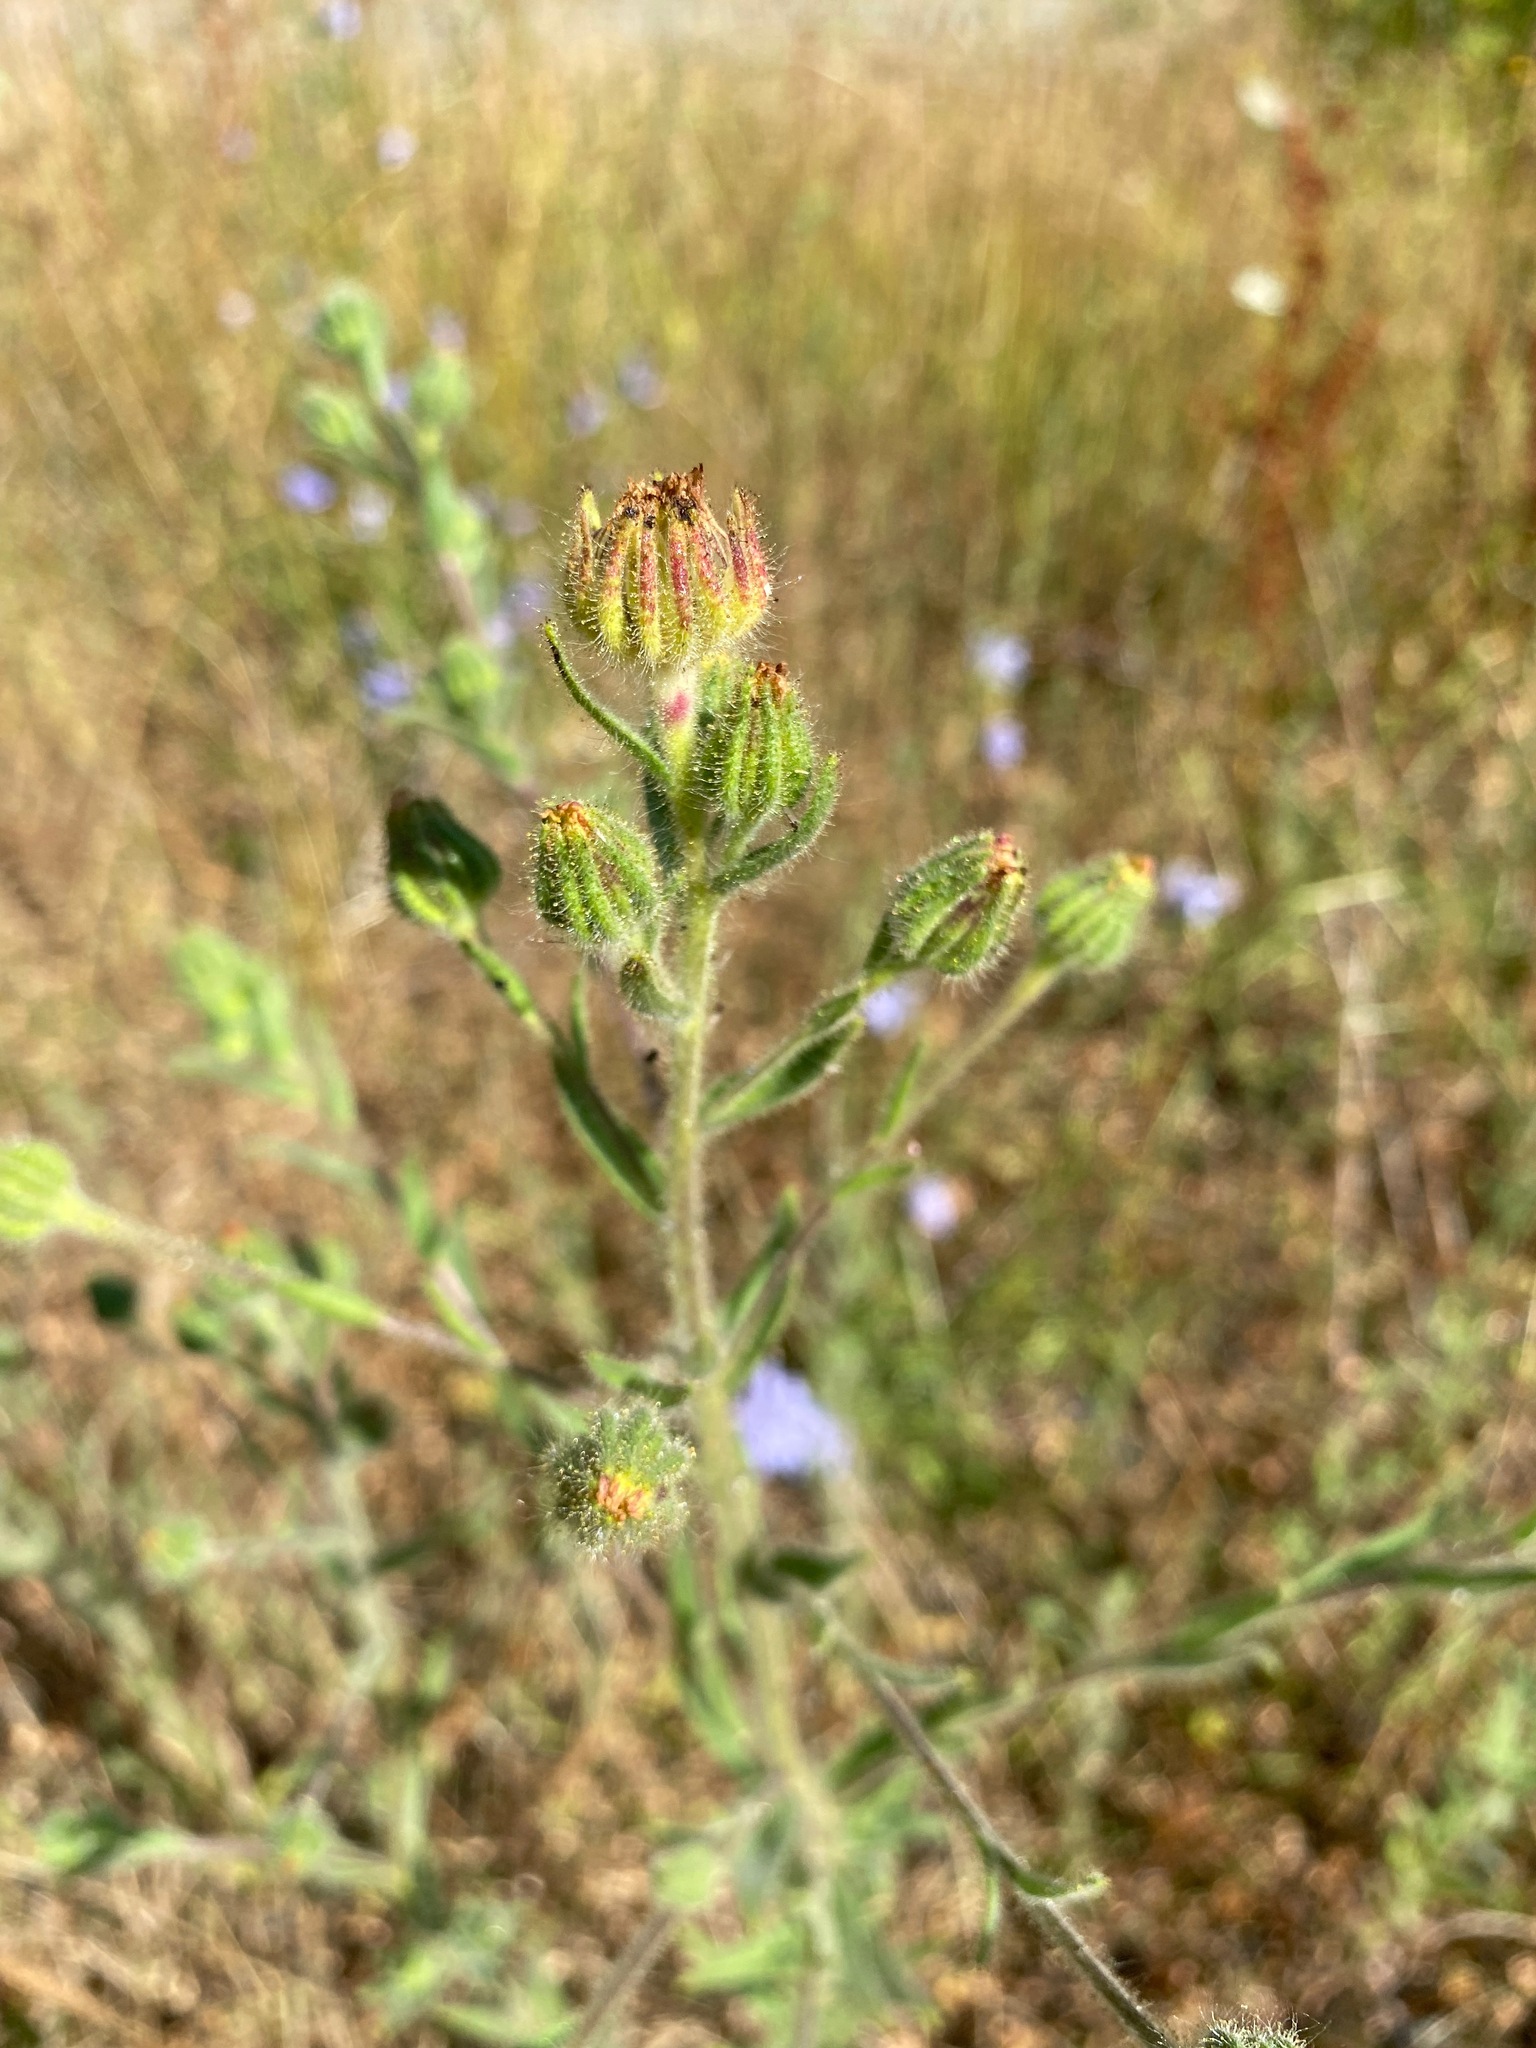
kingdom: Plantae
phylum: Tracheophyta
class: Magnoliopsida
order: Asterales
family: Asteraceae
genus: Madia
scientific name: Madia gracilis
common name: Grassy tarweed
